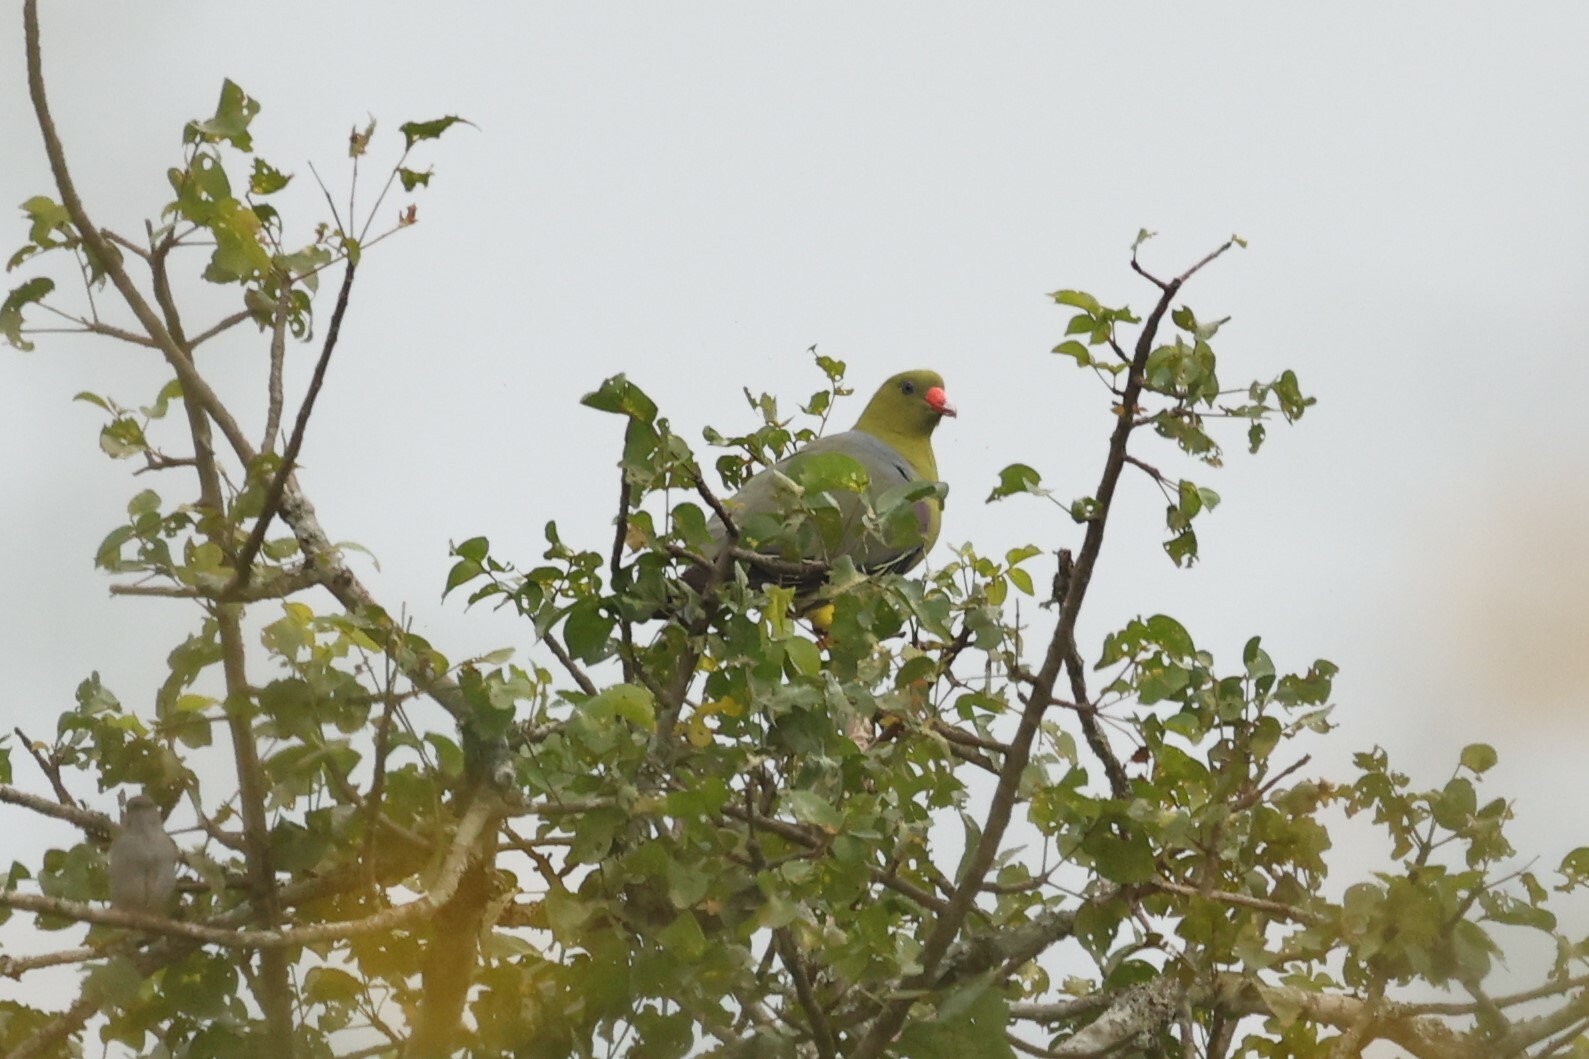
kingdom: Animalia
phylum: Chordata
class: Aves
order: Columbiformes
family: Columbidae
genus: Treron
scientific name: Treron calvus
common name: African green pigeon
